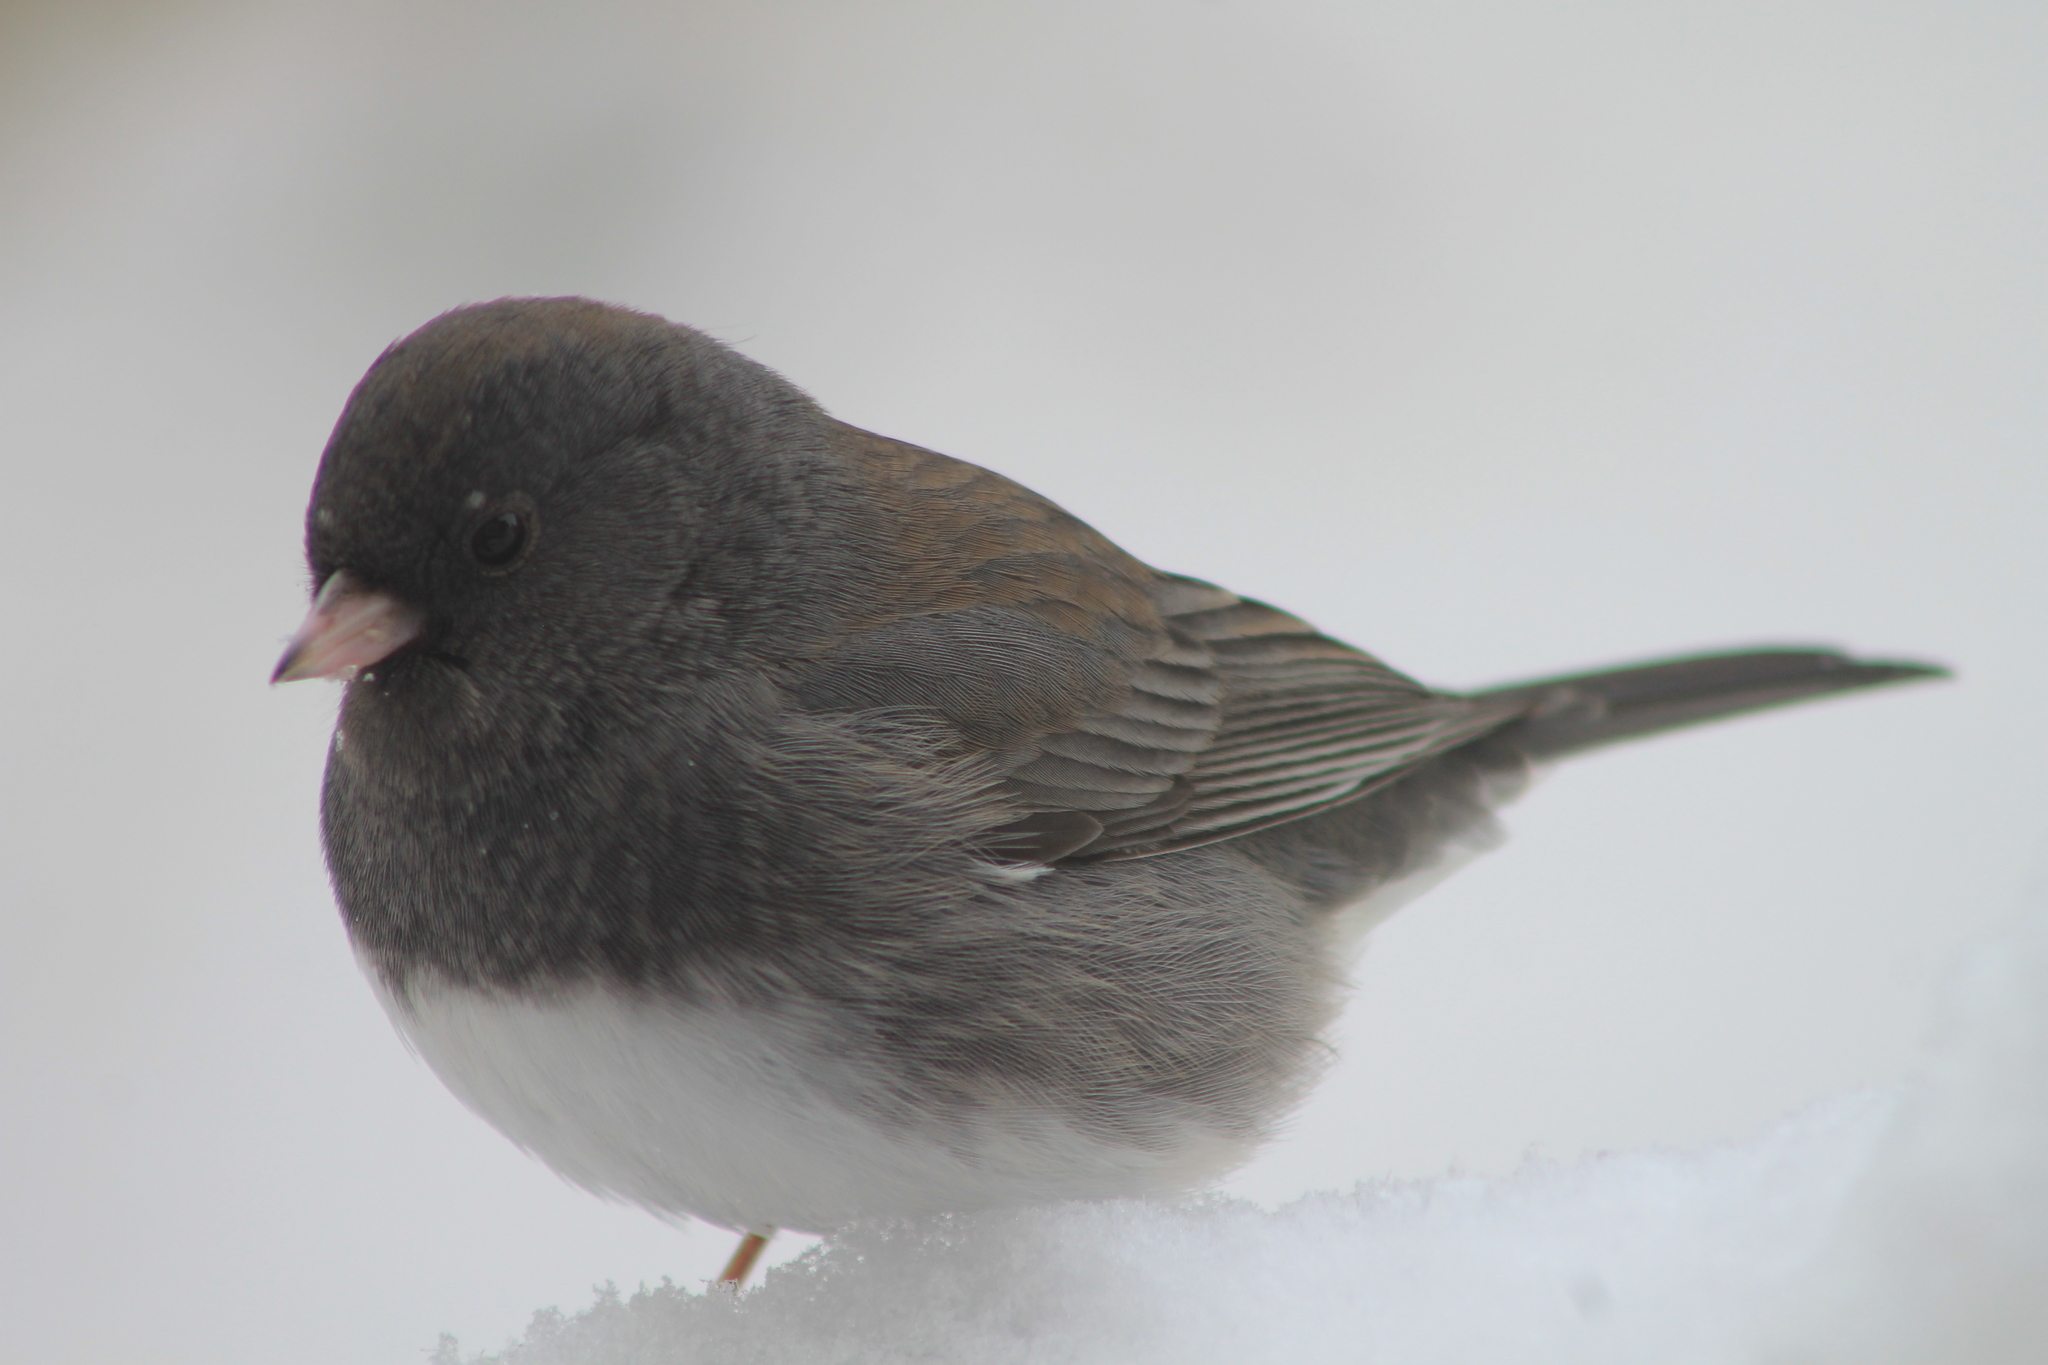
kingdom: Animalia
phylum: Chordata
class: Aves
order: Passeriformes
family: Passerellidae
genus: Junco
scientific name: Junco hyemalis
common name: Dark-eyed junco
